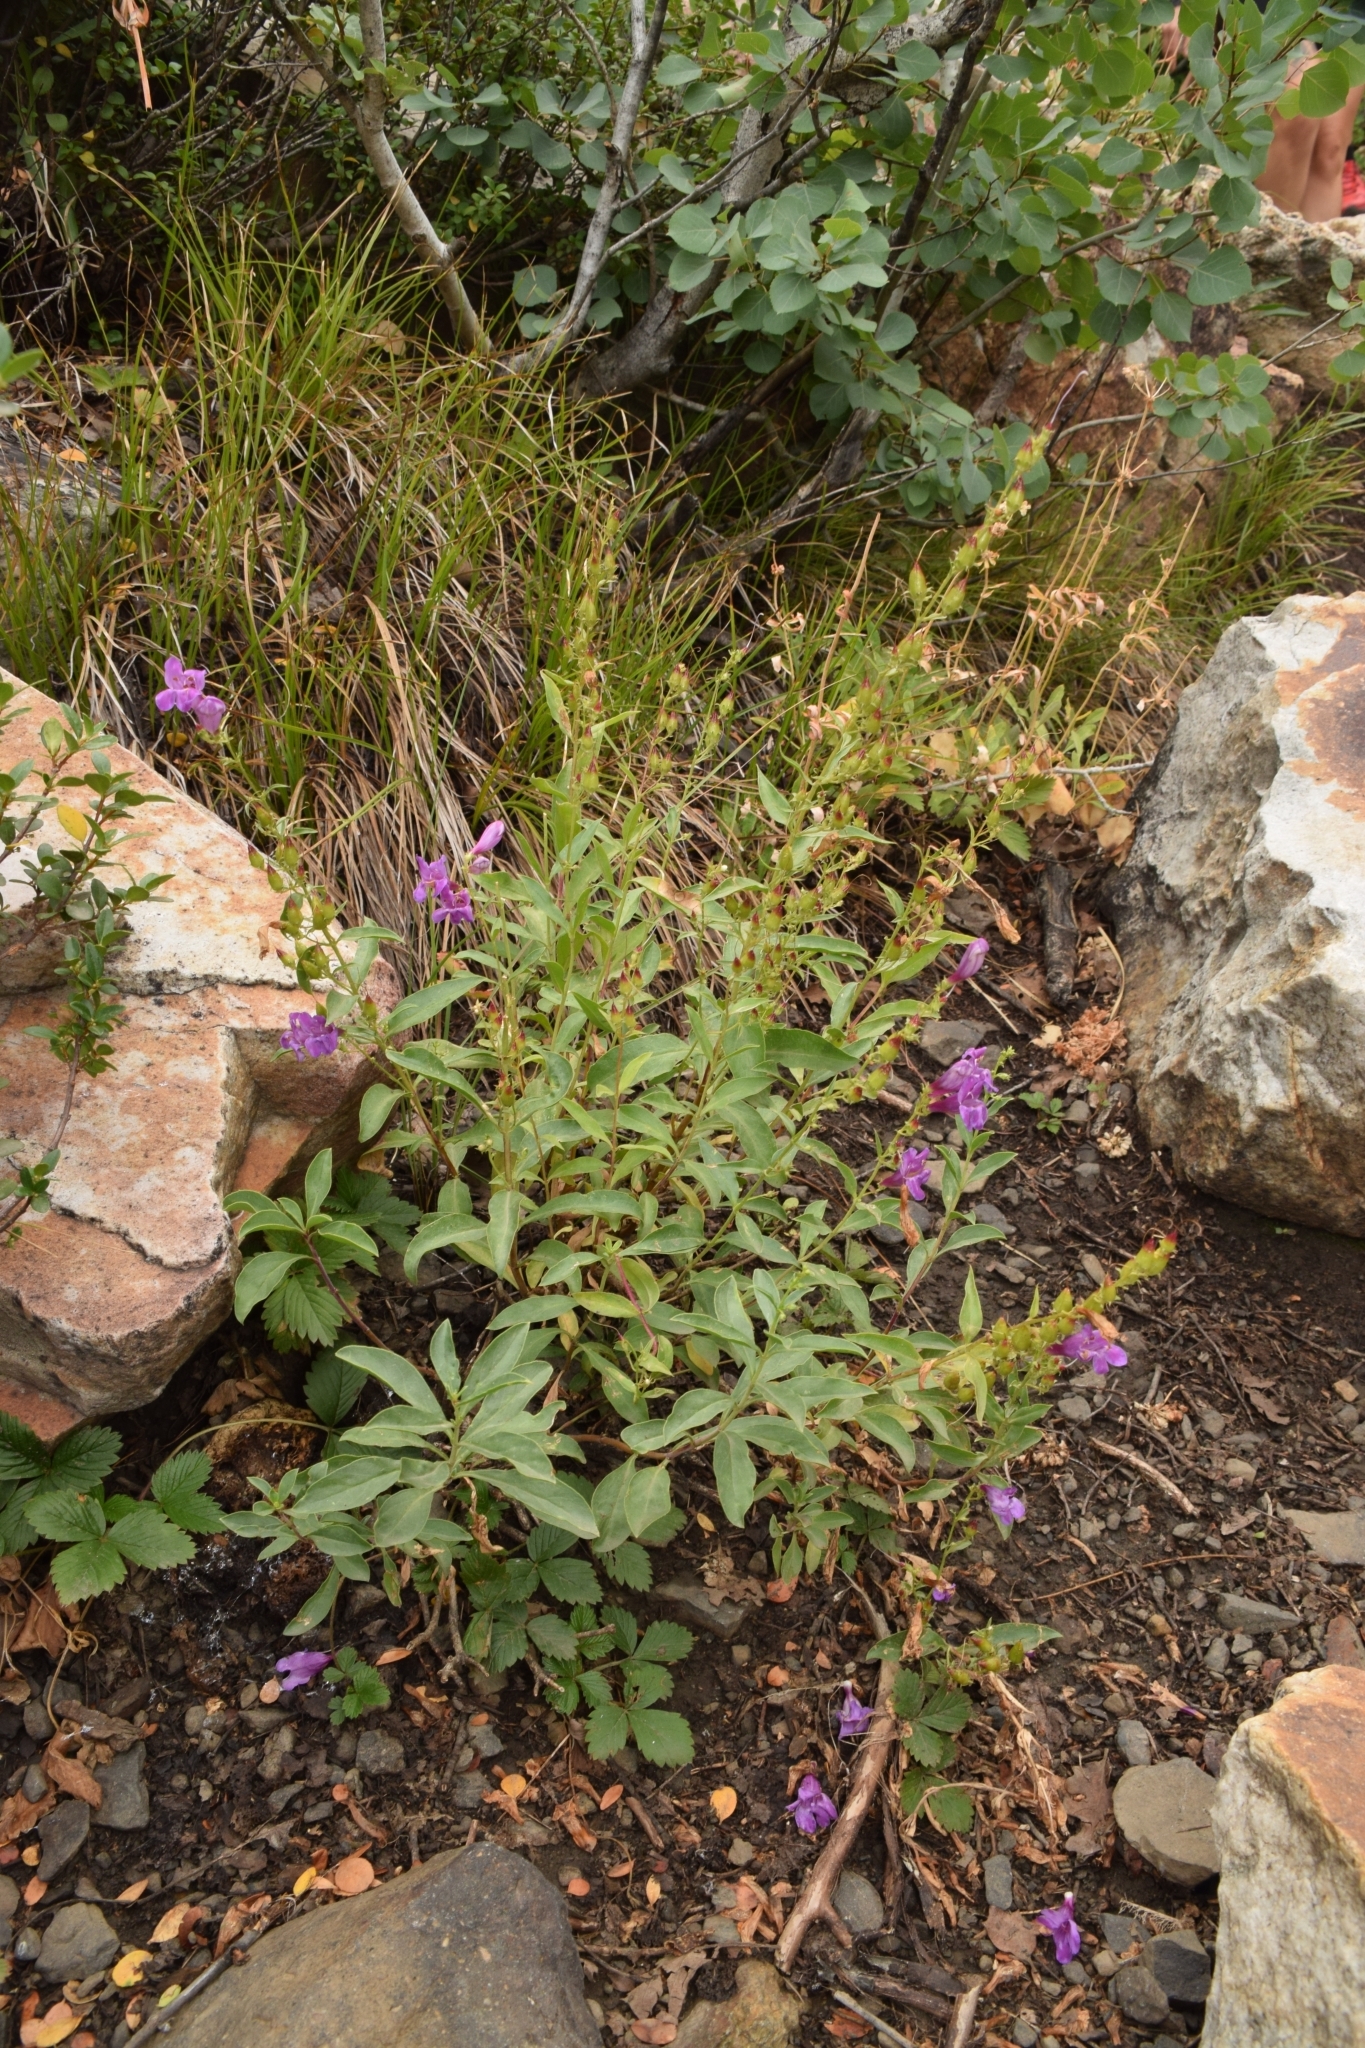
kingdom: Plantae
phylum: Tracheophyta
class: Magnoliopsida
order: Lamiales
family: Plantaginaceae
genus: Penstemon
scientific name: Penstemon platyphyllus
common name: Broadleaf penstemon
